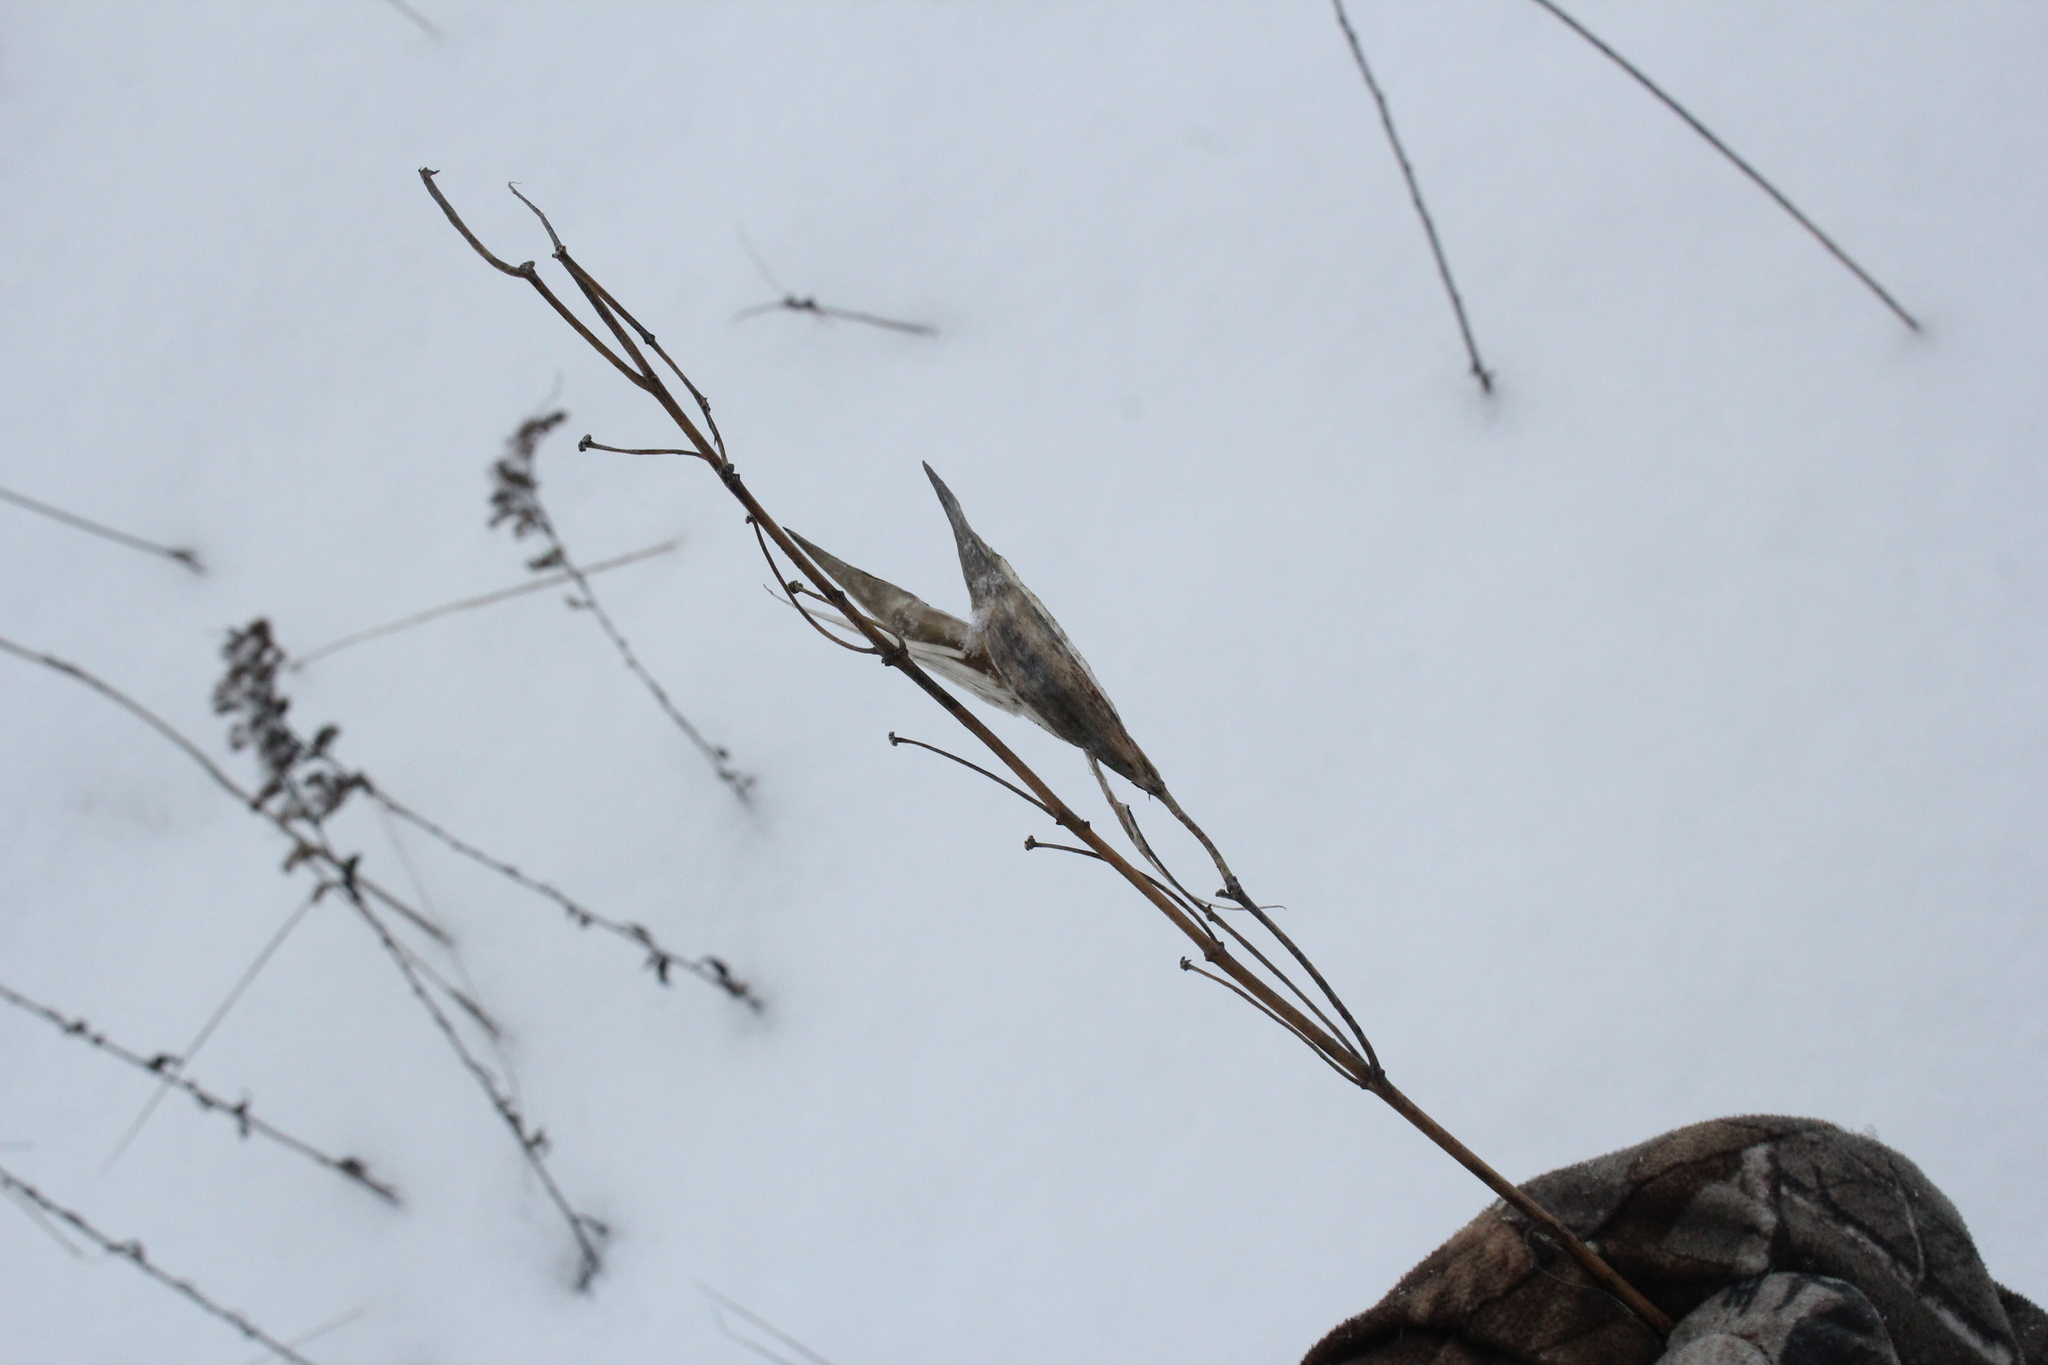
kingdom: Plantae
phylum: Tracheophyta
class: Magnoliopsida
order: Gentianales
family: Apocynaceae
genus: Asclepias
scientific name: Asclepias verticillata
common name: Eastern whorled milkweed
